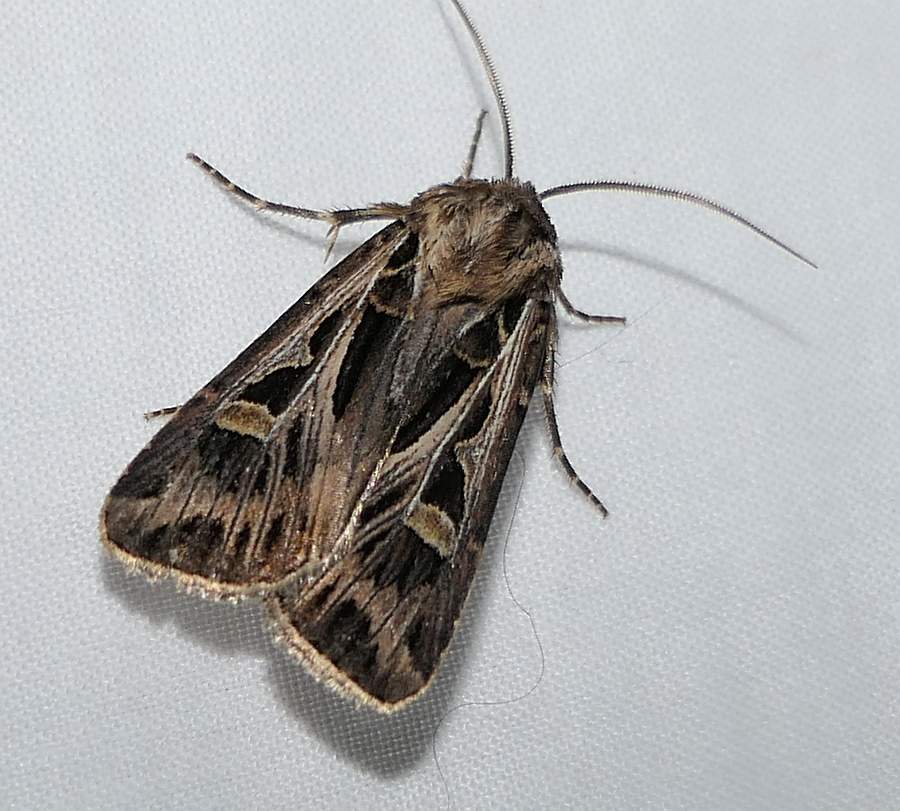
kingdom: Animalia
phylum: Arthropoda
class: Insecta
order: Lepidoptera
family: Noctuidae
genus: Feltia
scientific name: Feltia jaculifera
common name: Dingy cutworm moth
